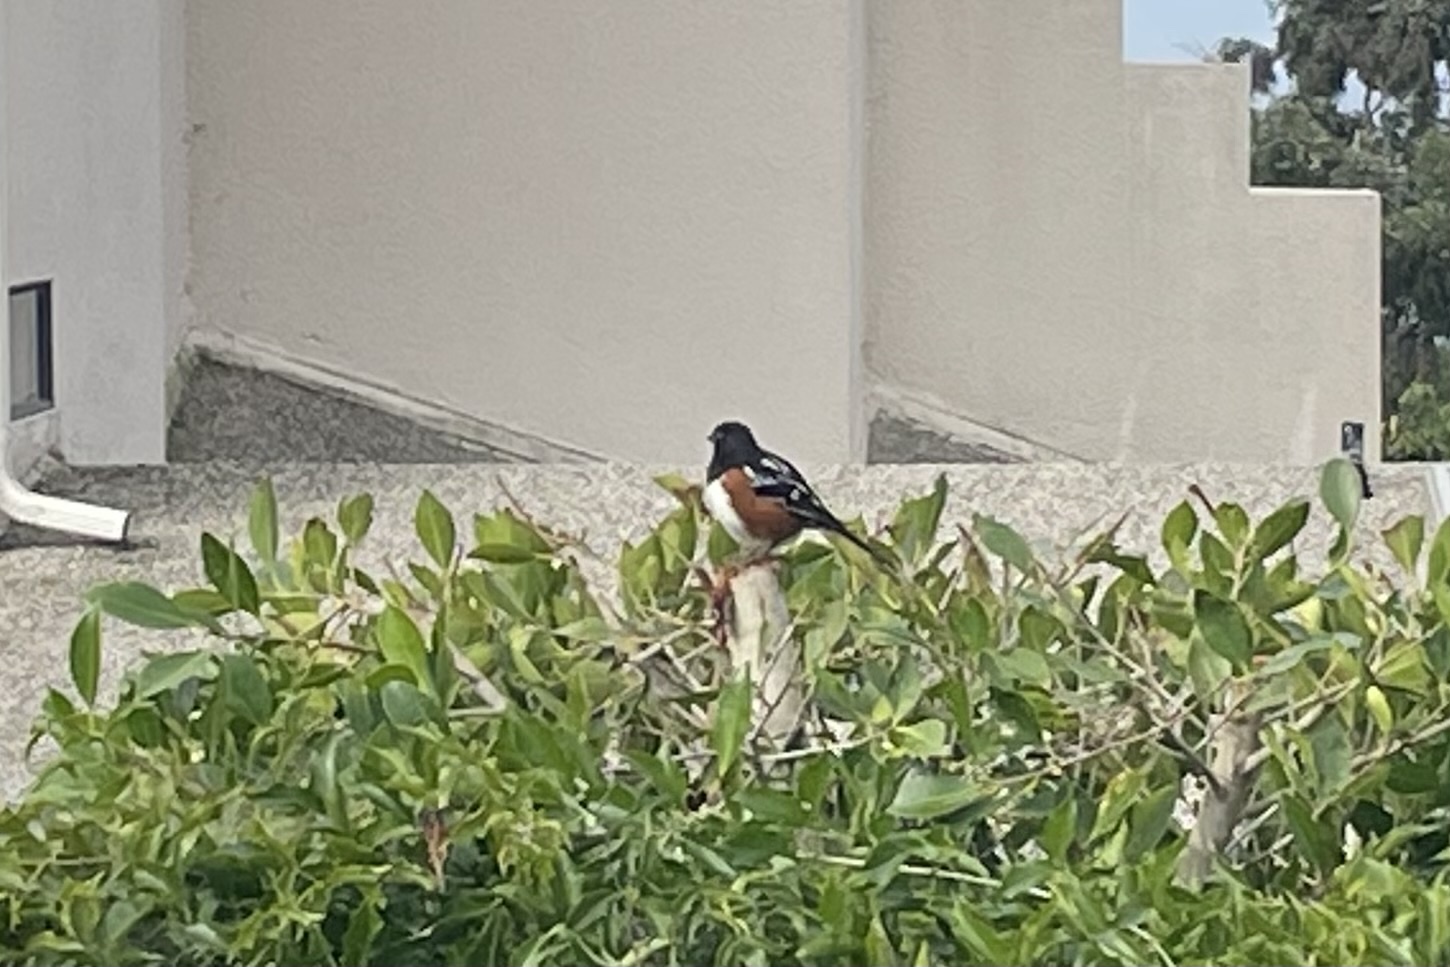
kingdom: Animalia
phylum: Chordata
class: Aves
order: Passeriformes
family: Passerellidae
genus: Pipilo
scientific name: Pipilo maculatus
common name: Spotted towhee
